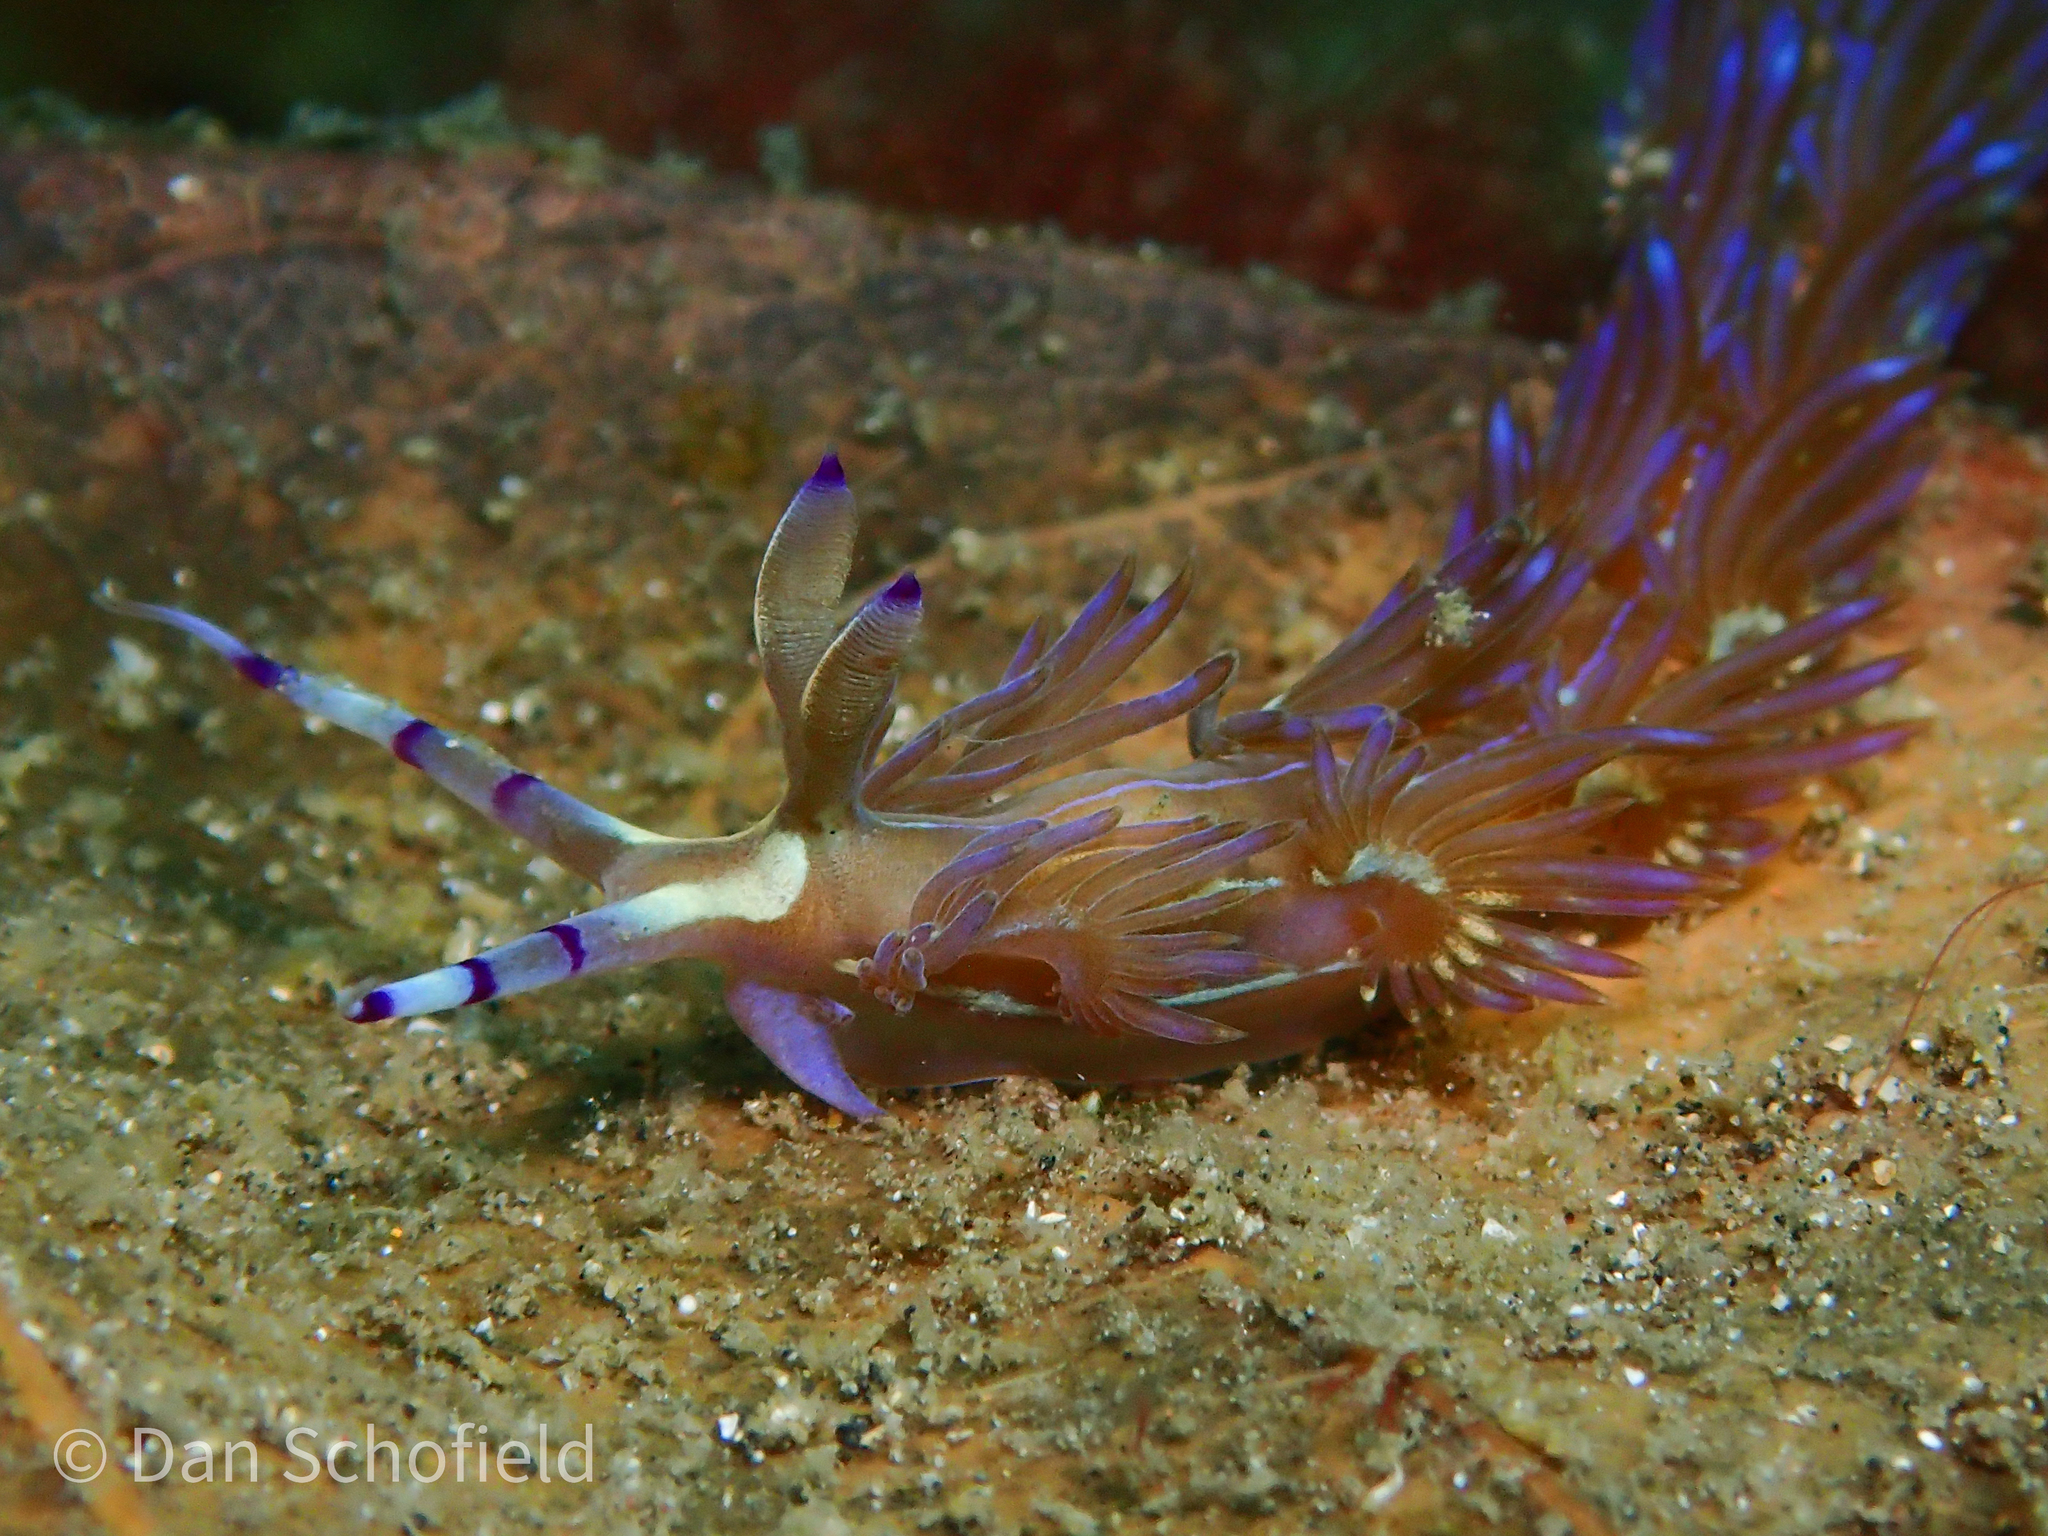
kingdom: Animalia
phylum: Mollusca
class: Gastropoda
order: Nudibranchia
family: Facelinidae
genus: Pteraeolidia
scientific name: Pteraeolidia semperi
